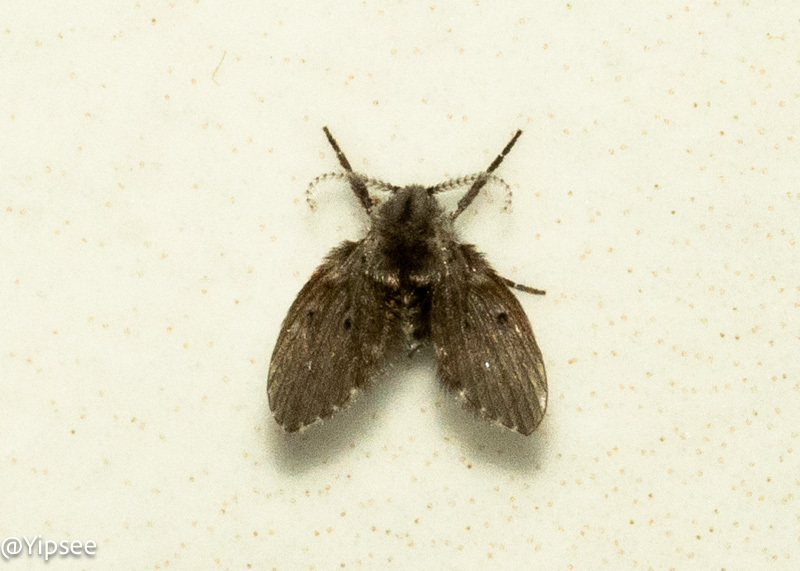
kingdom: Animalia
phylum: Arthropoda
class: Insecta
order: Diptera
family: Psychodidae
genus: Clogmia
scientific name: Clogmia albipunctatus
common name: White-spotted moth fly
